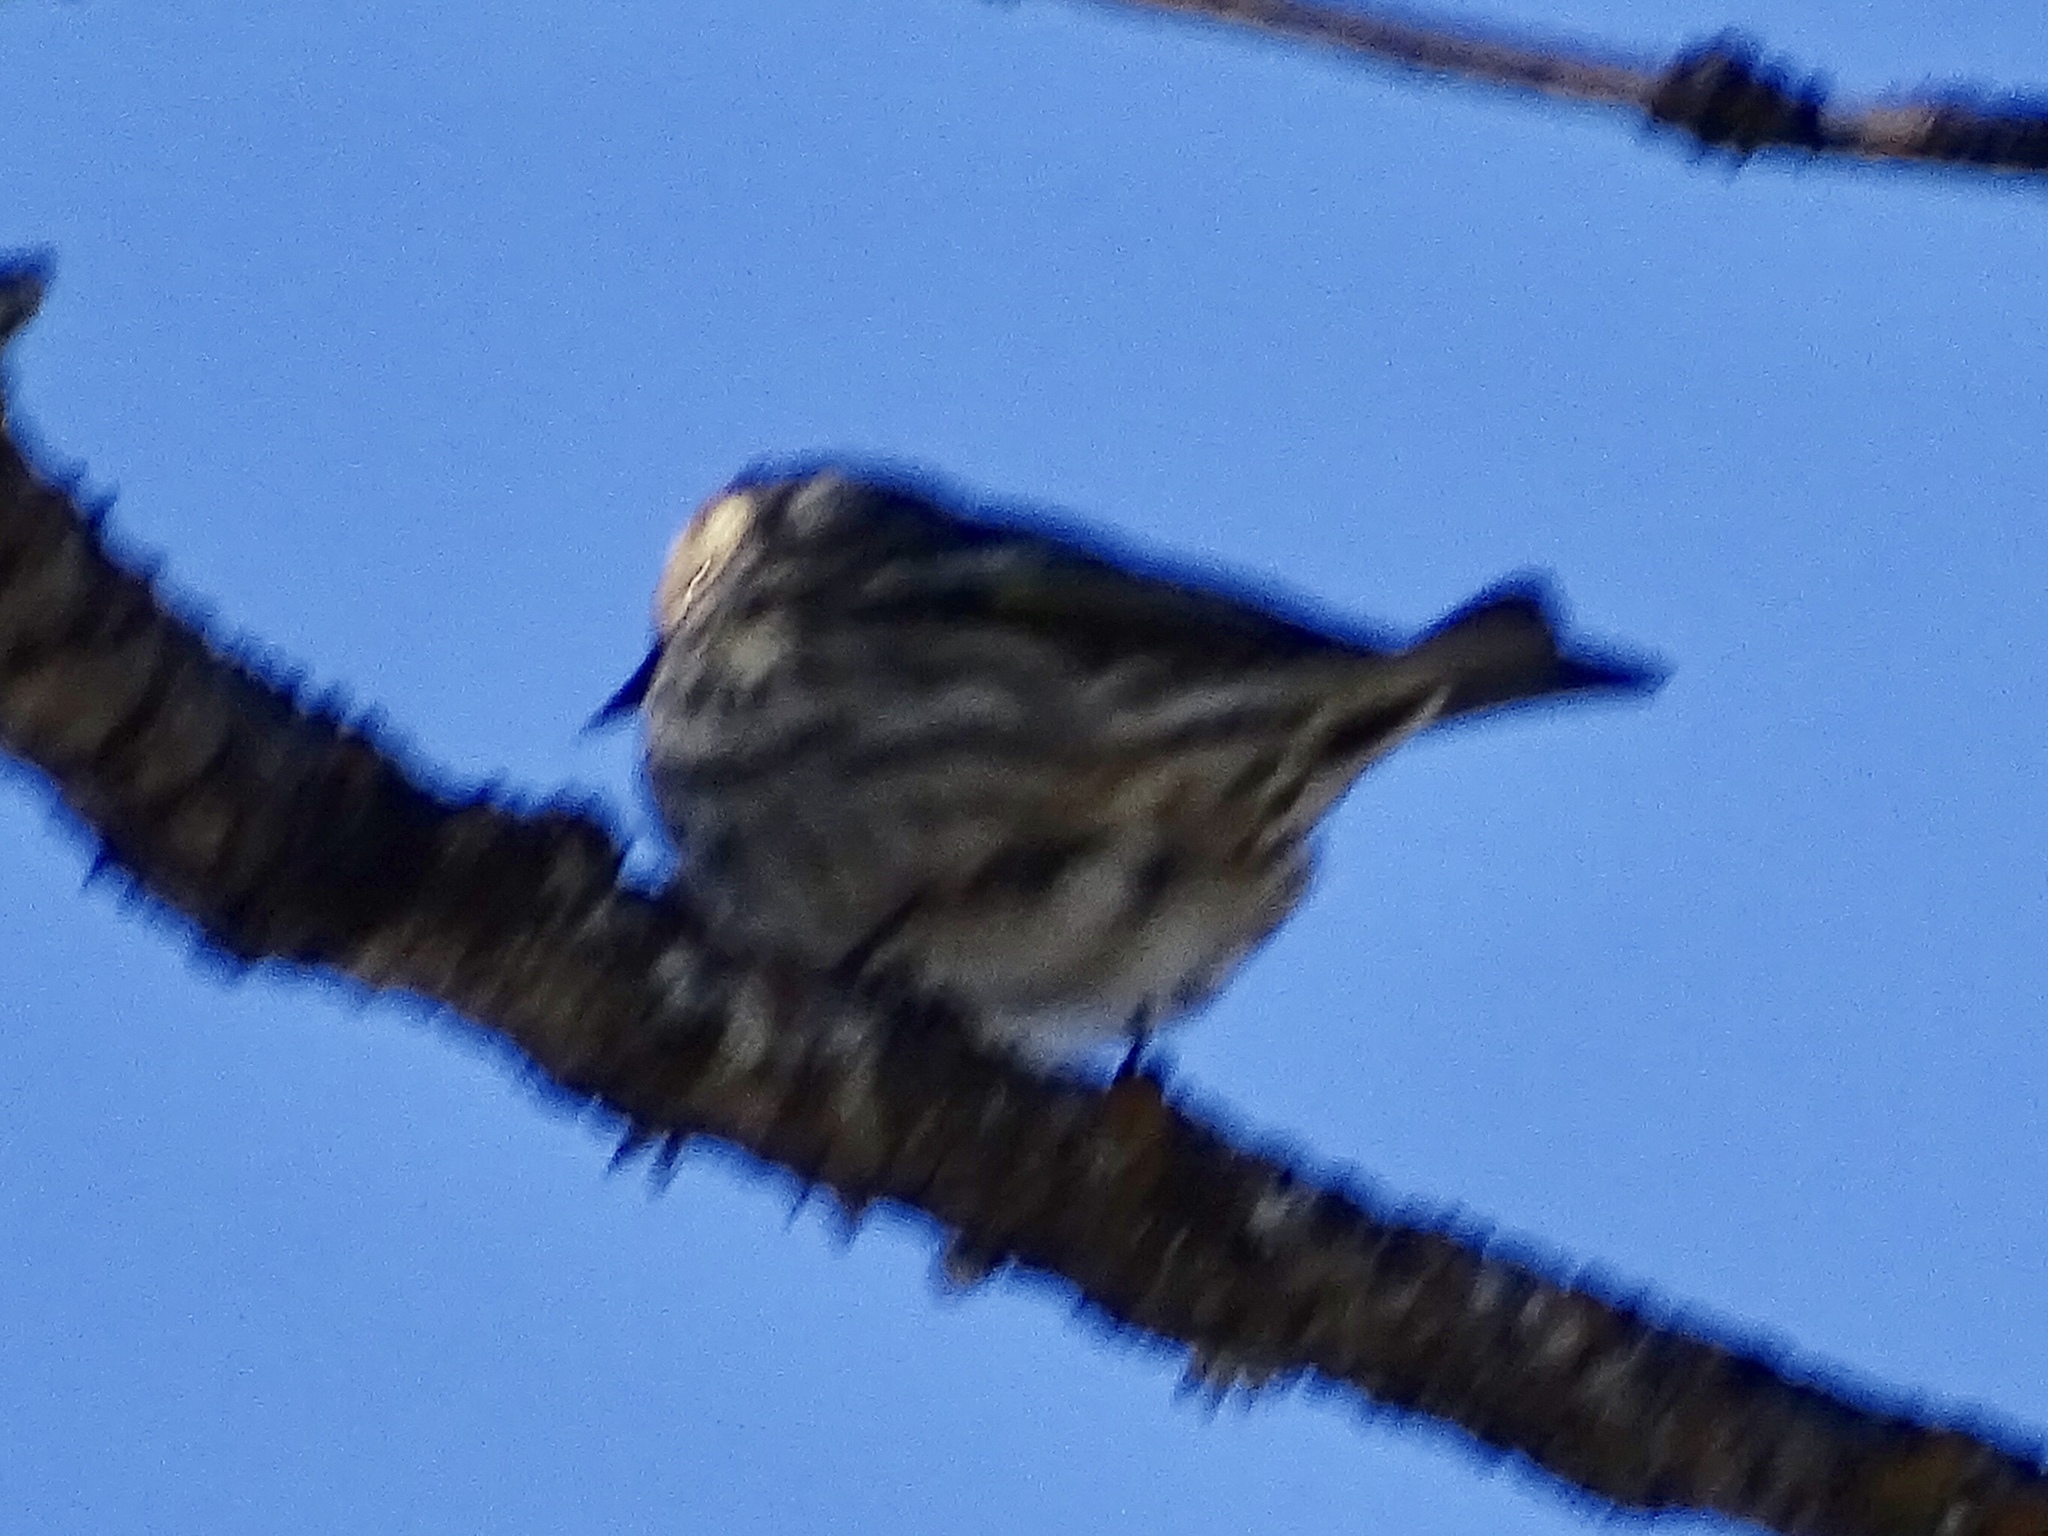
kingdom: Animalia
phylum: Chordata
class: Aves
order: Passeriformes
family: Fringillidae
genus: Spinus
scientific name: Spinus pinus
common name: Pine siskin
